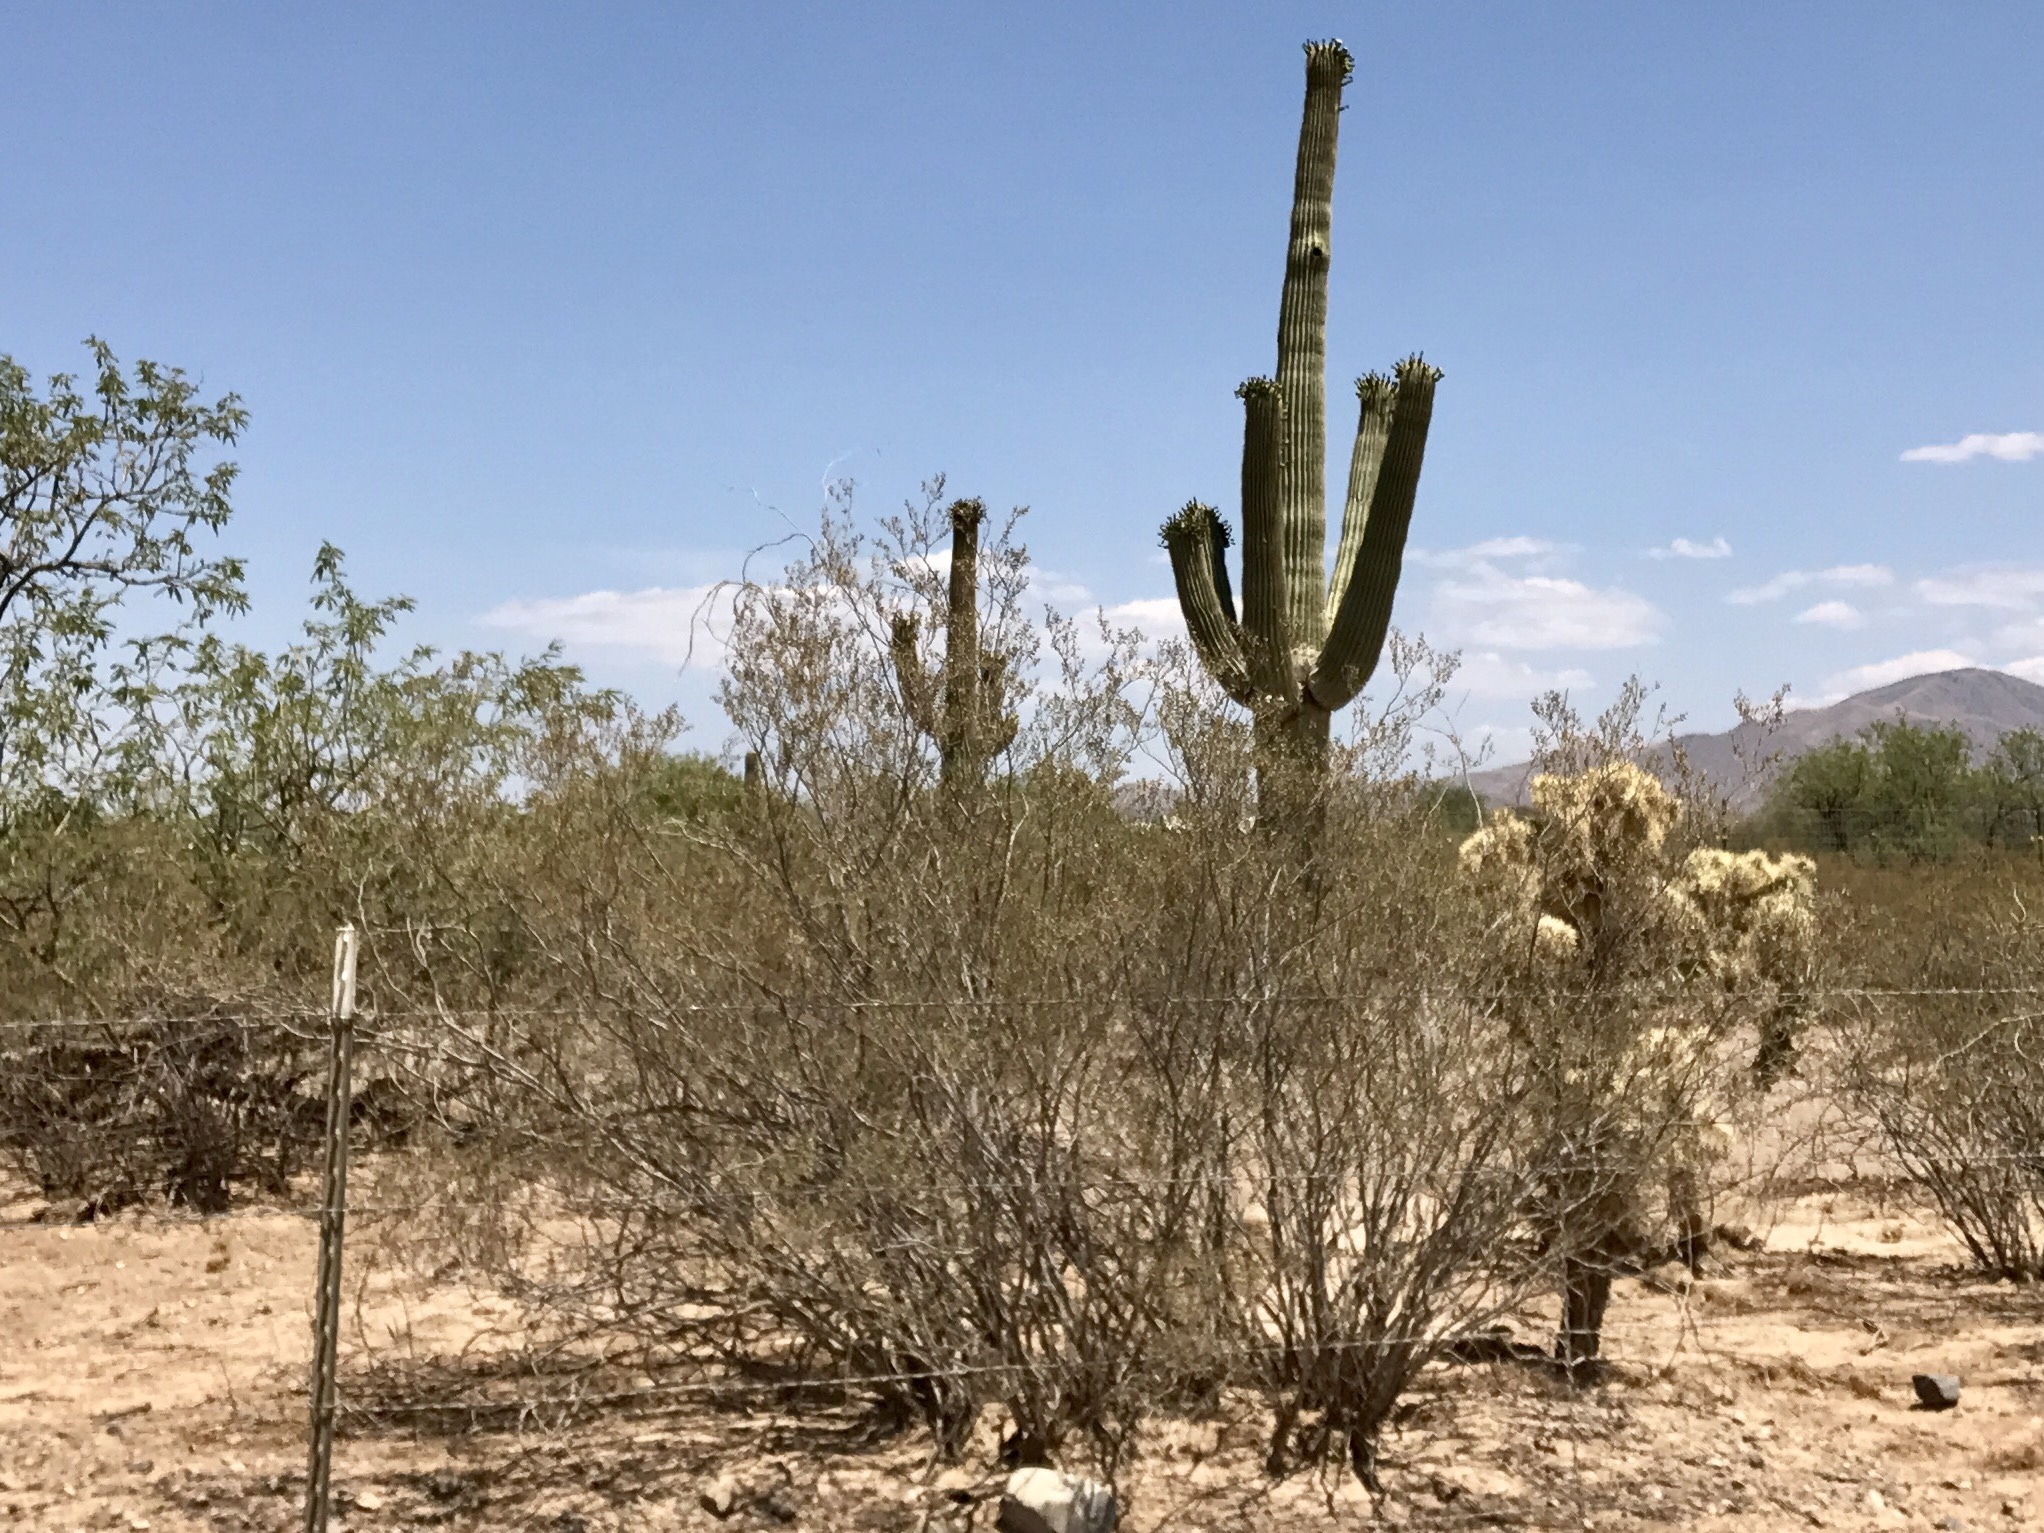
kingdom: Plantae
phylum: Tracheophyta
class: Magnoliopsida
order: Zygophyllales
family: Zygophyllaceae
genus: Larrea
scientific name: Larrea tridentata
